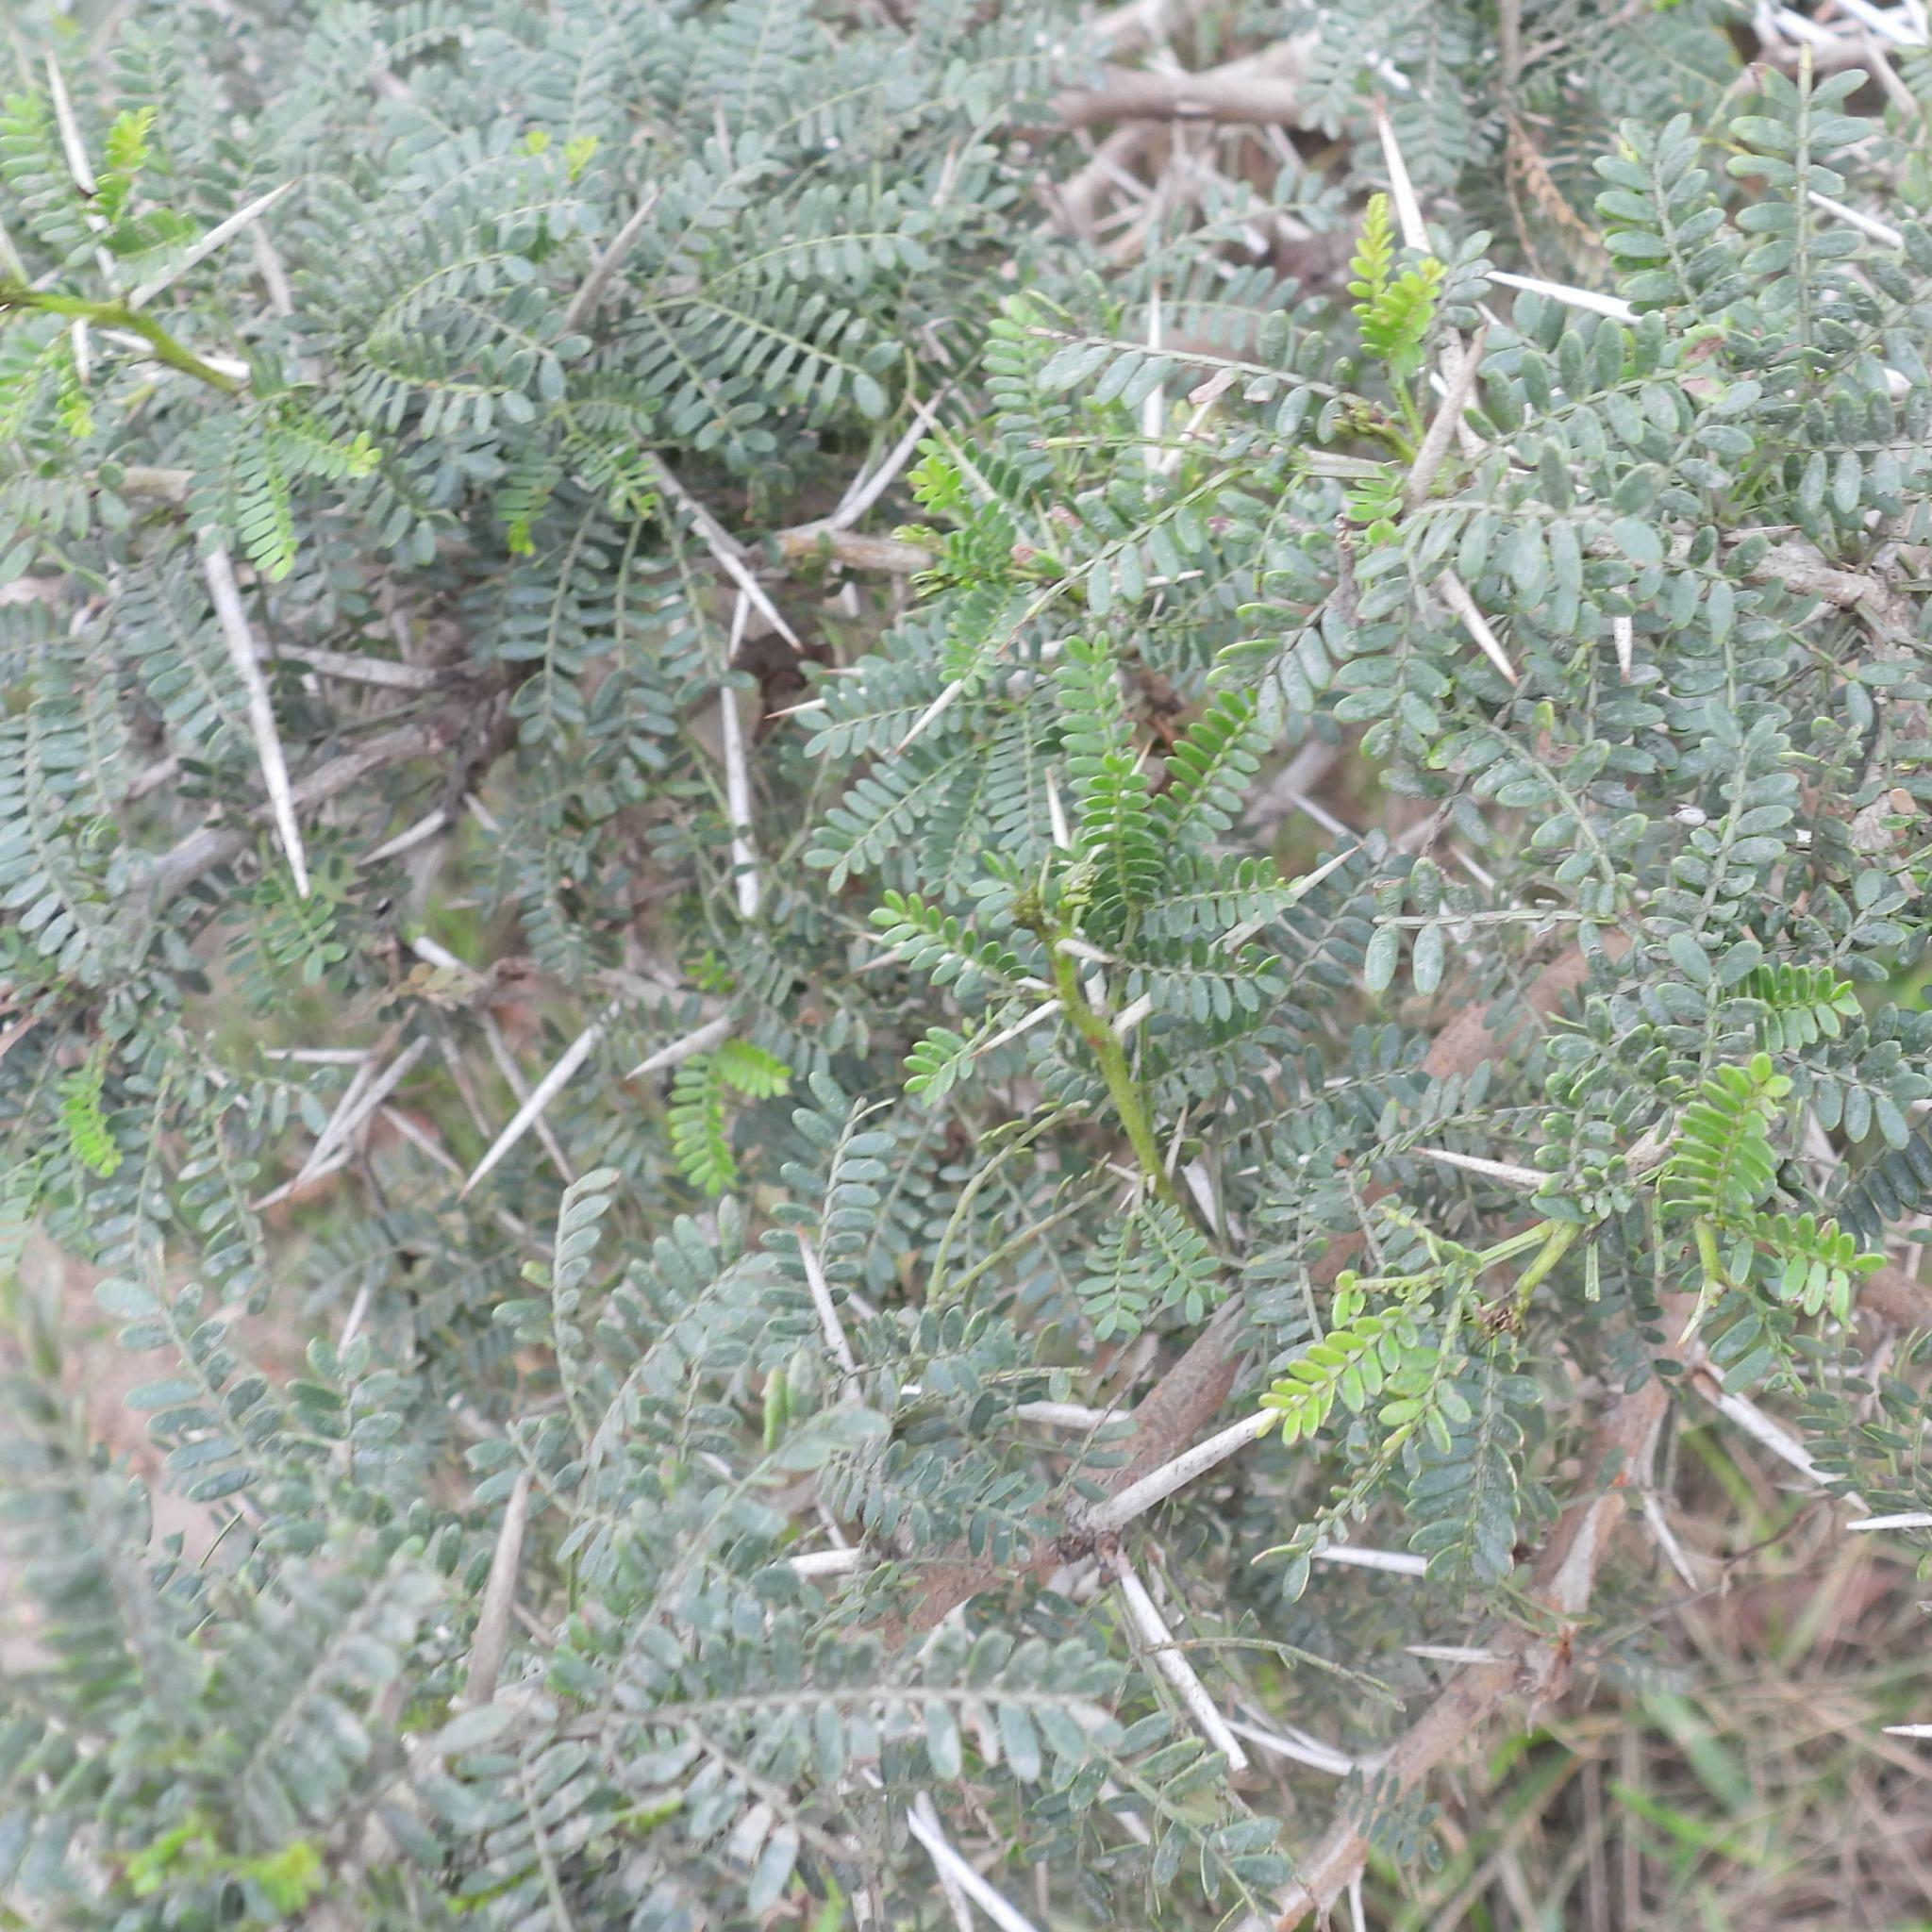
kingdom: Plantae
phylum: Tracheophyta
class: Magnoliopsida
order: Fabales
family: Fabaceae
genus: Vachellia
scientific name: Vachellia karroo
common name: Sweet thorn
